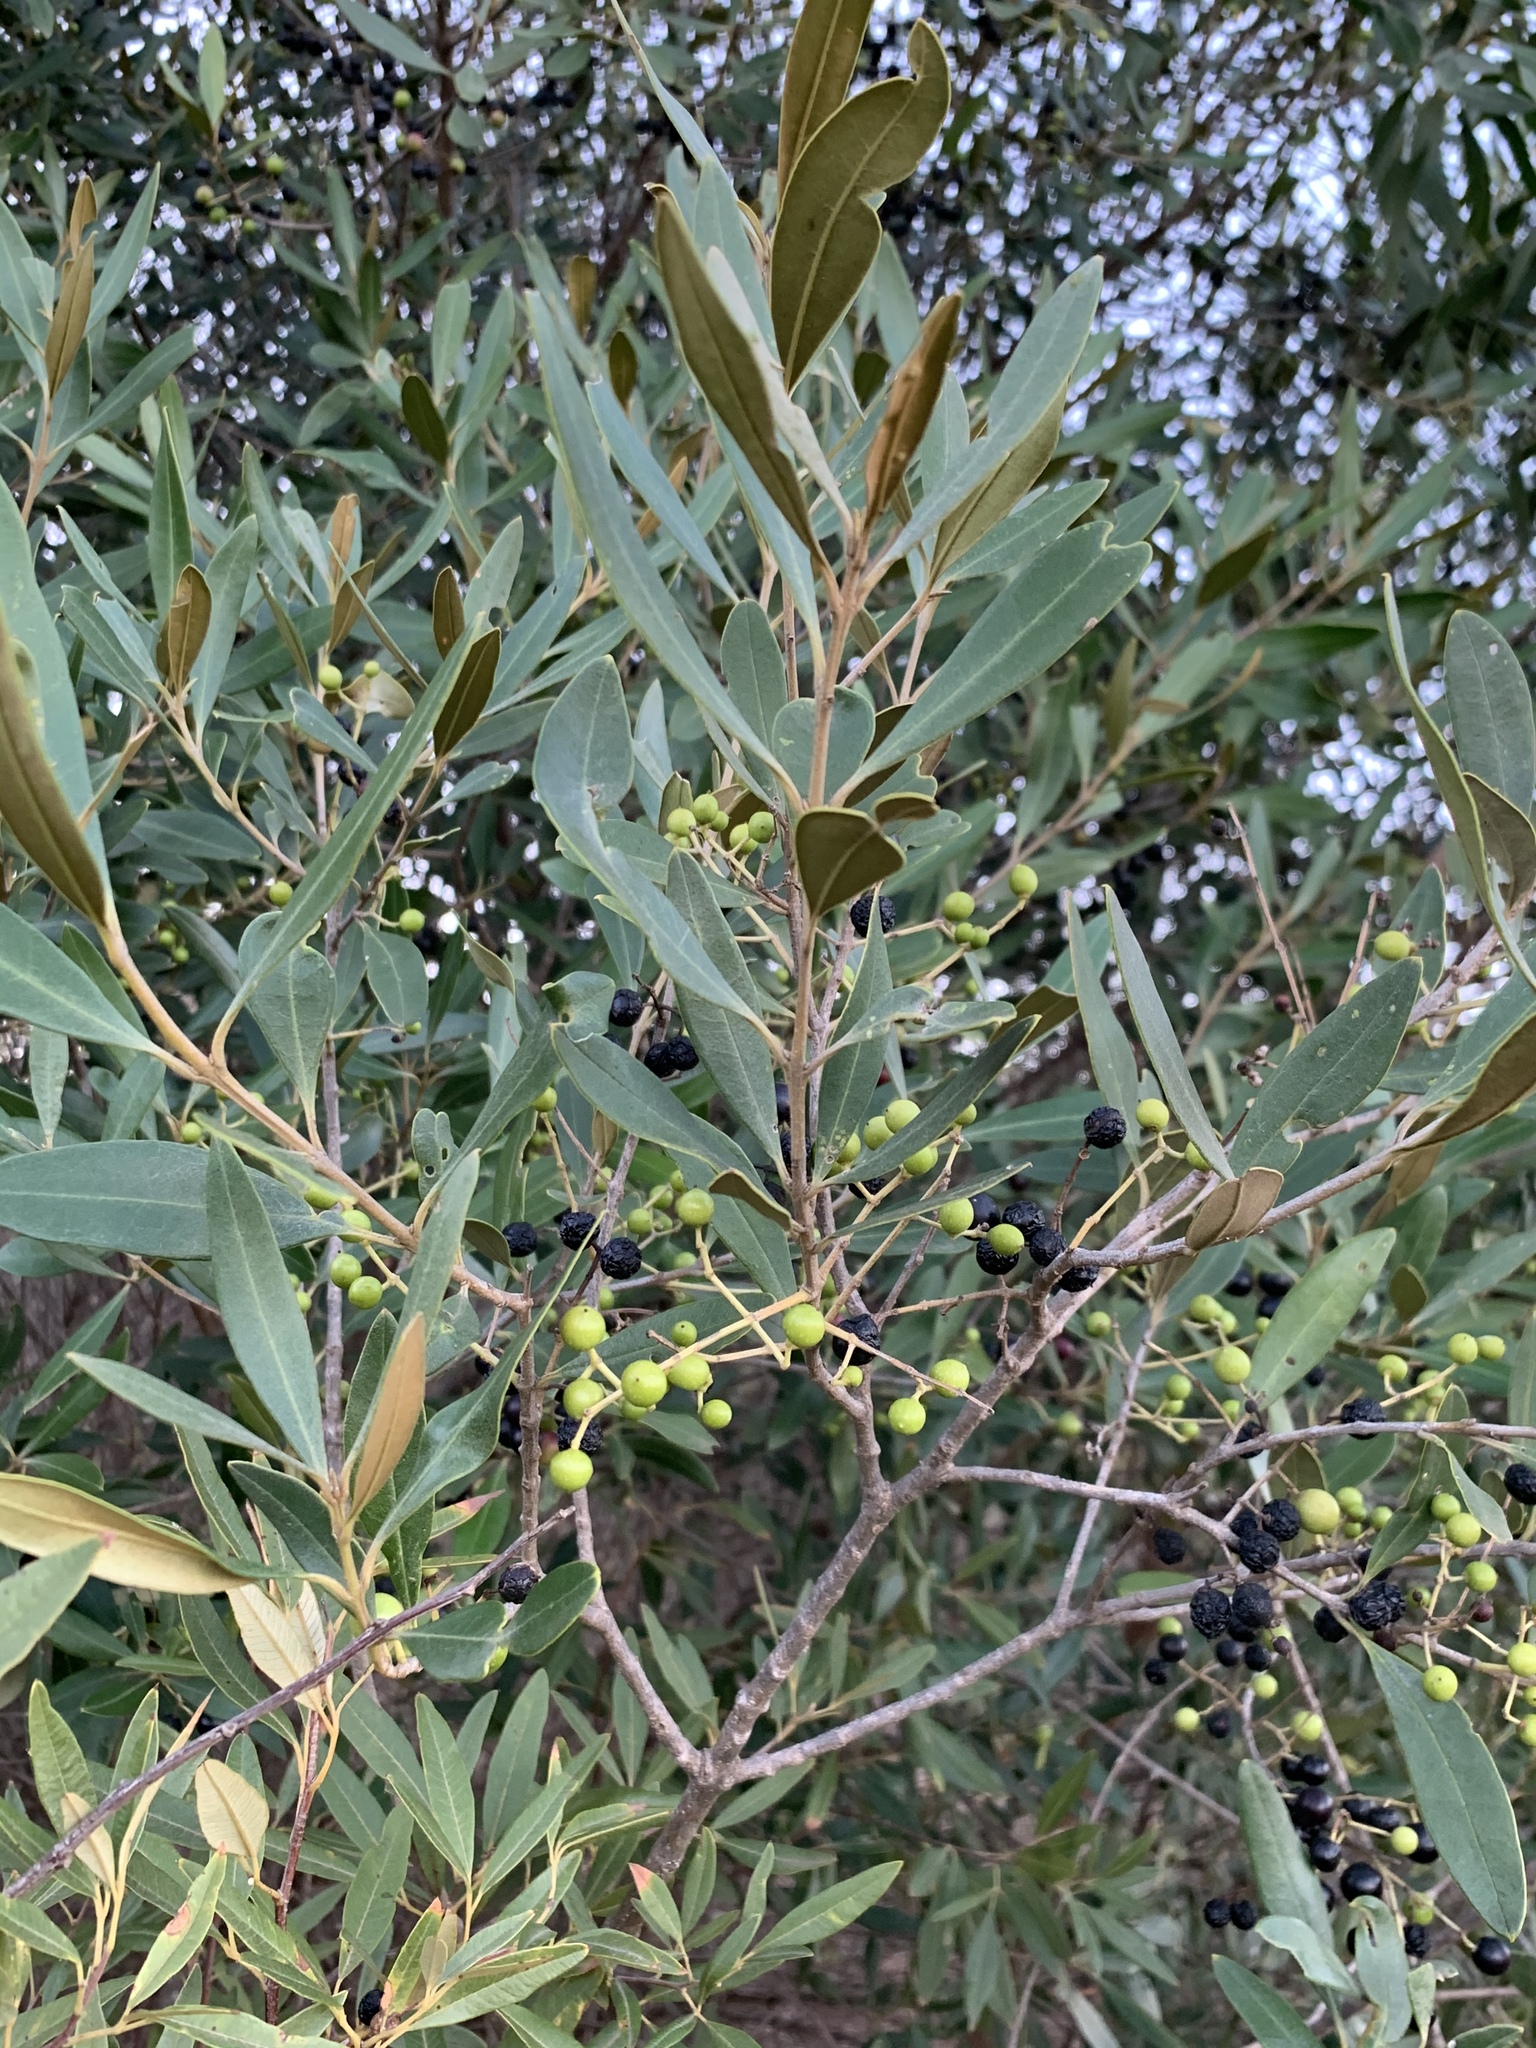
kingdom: Plantae
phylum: Tracheophyta
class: Magnoliopsida
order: Lamiales
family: Oleaceae
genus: Olea
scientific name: Olea europaea
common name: Olive
